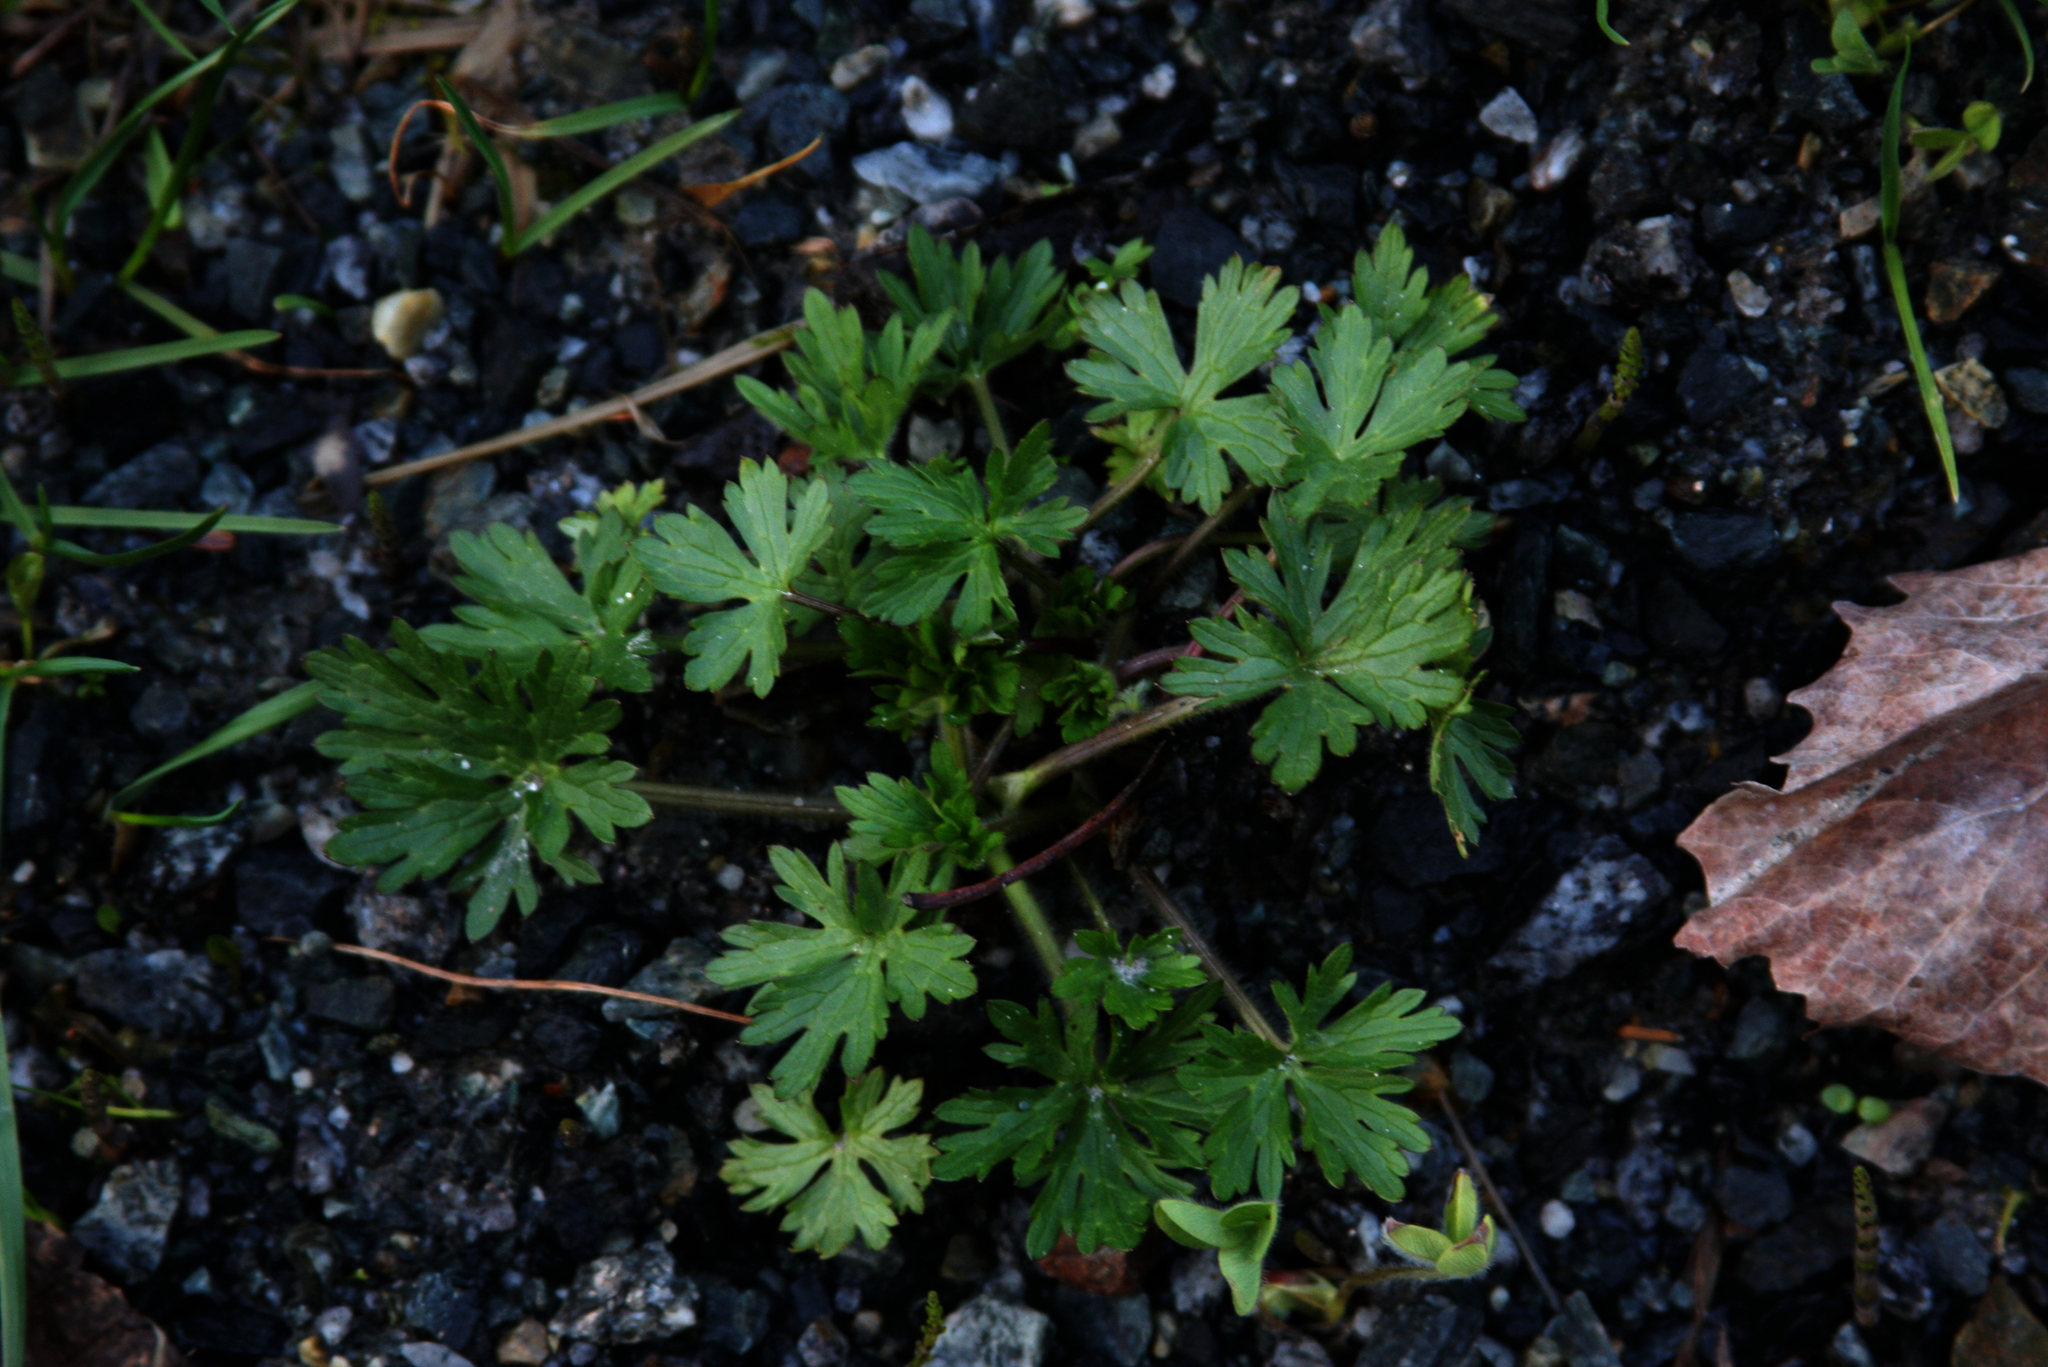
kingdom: Plantae
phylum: Tracheophyta
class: Magnoliopsida
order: Ranunculales
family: Ranunculaceae
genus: Ranunculus
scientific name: Ranunculus acris
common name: Meadow buttercup
